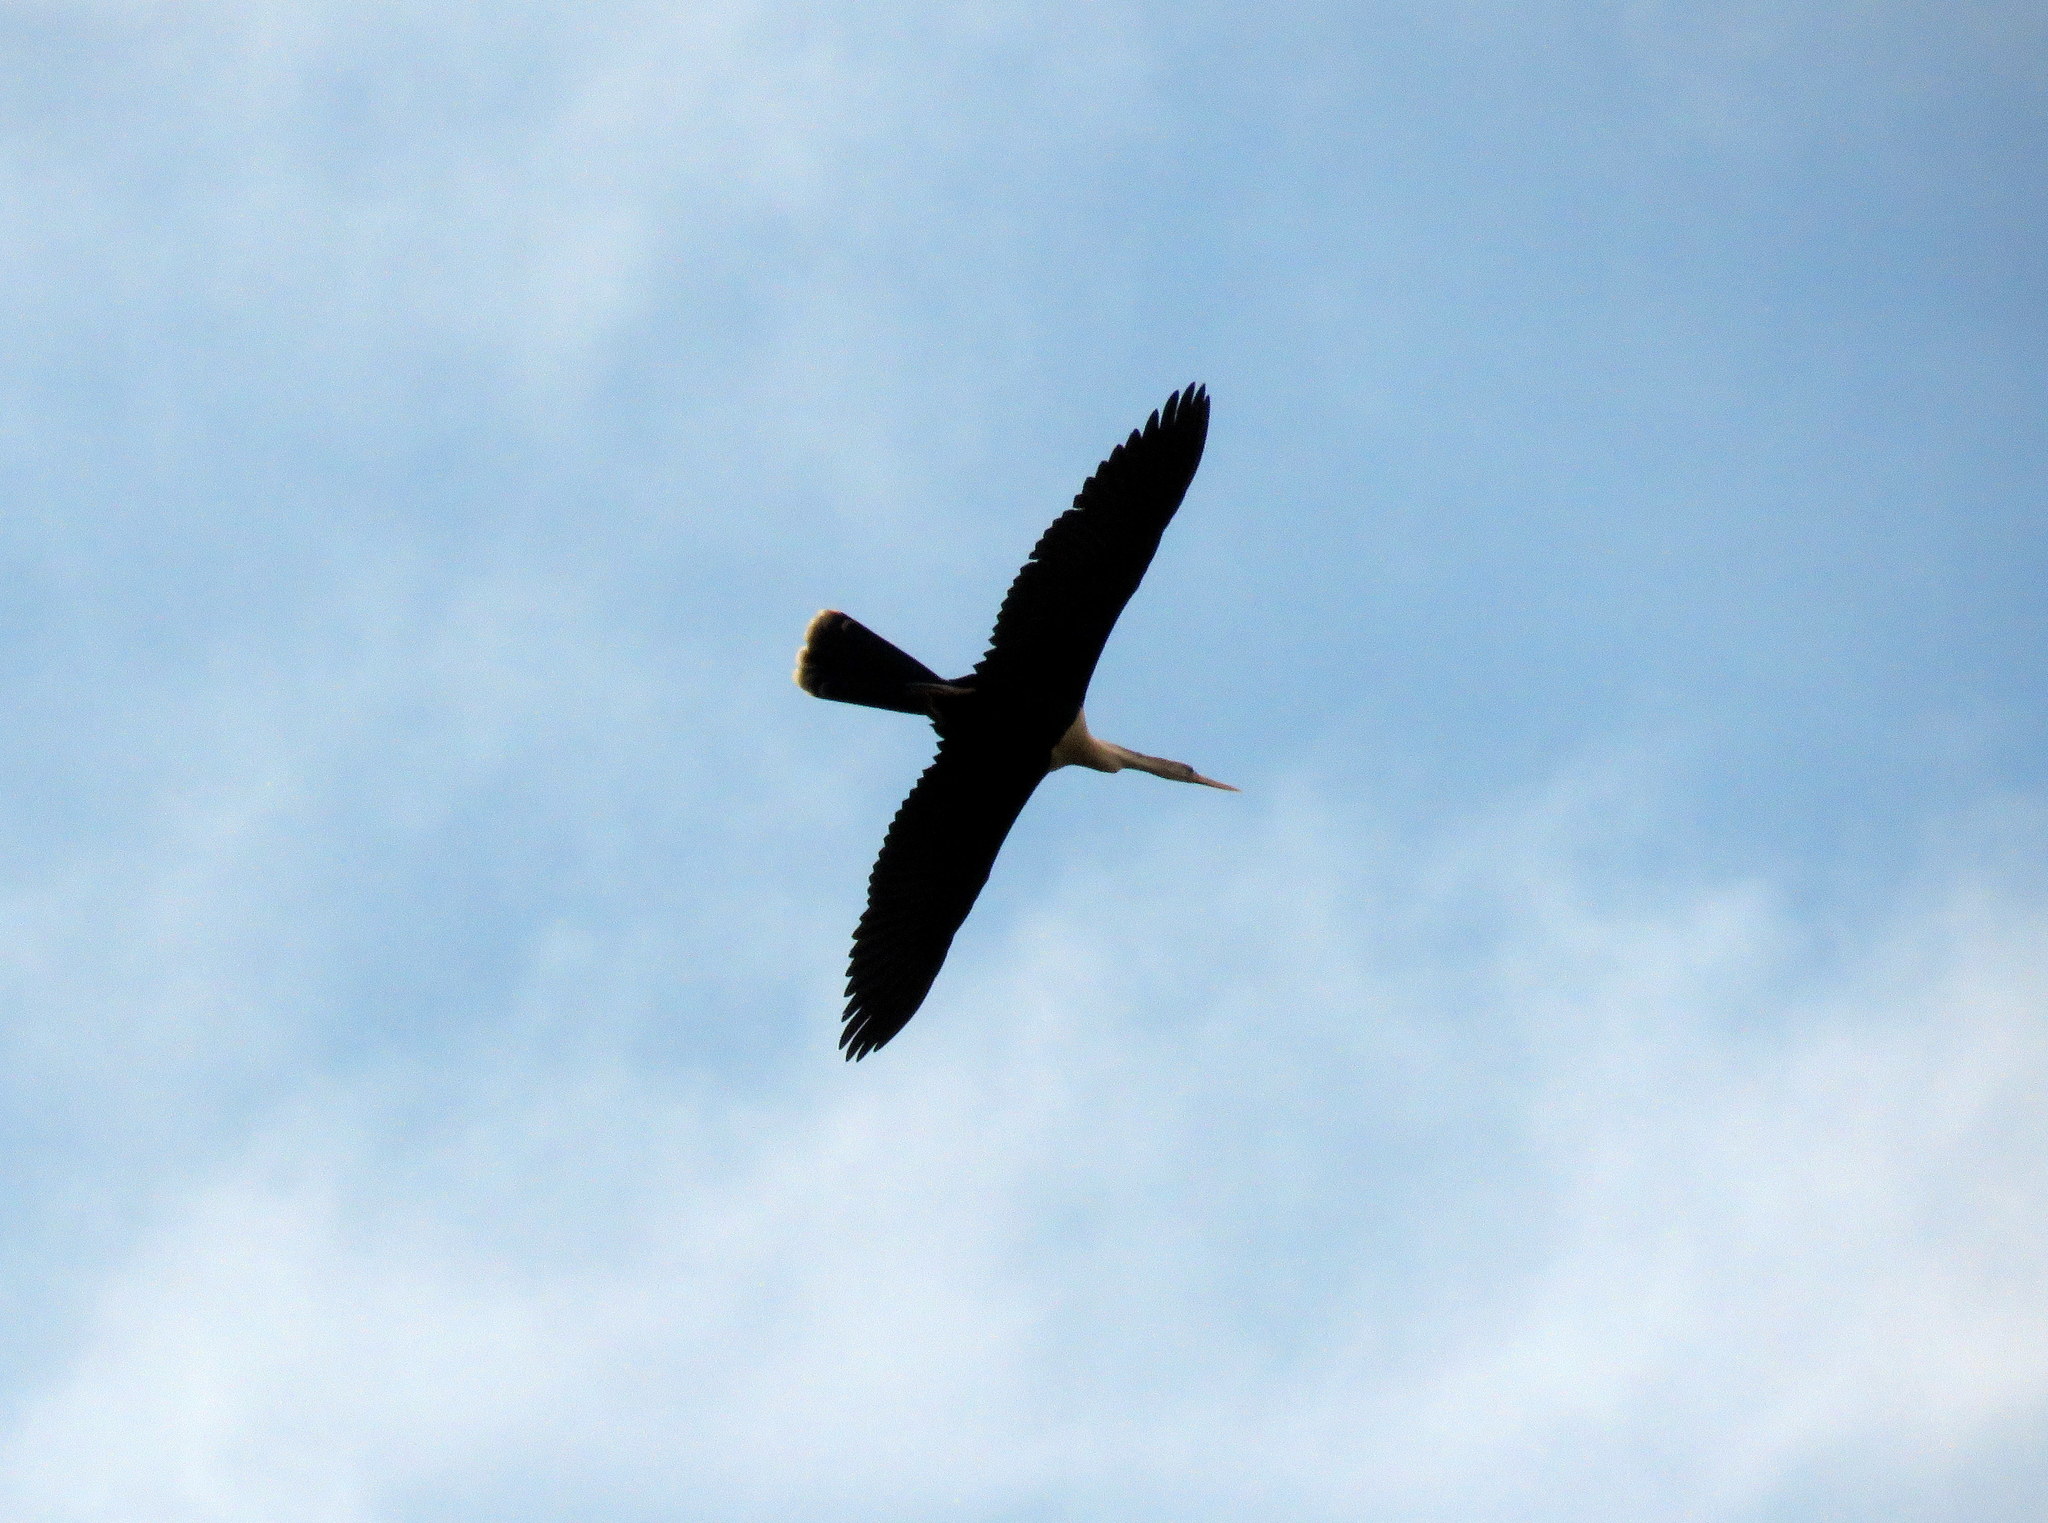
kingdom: Animalia
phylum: Chordata
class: Aves
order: Suliformes
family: Anhingidae
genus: Anhinga
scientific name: Anhinga anhinga
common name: Anhinga
